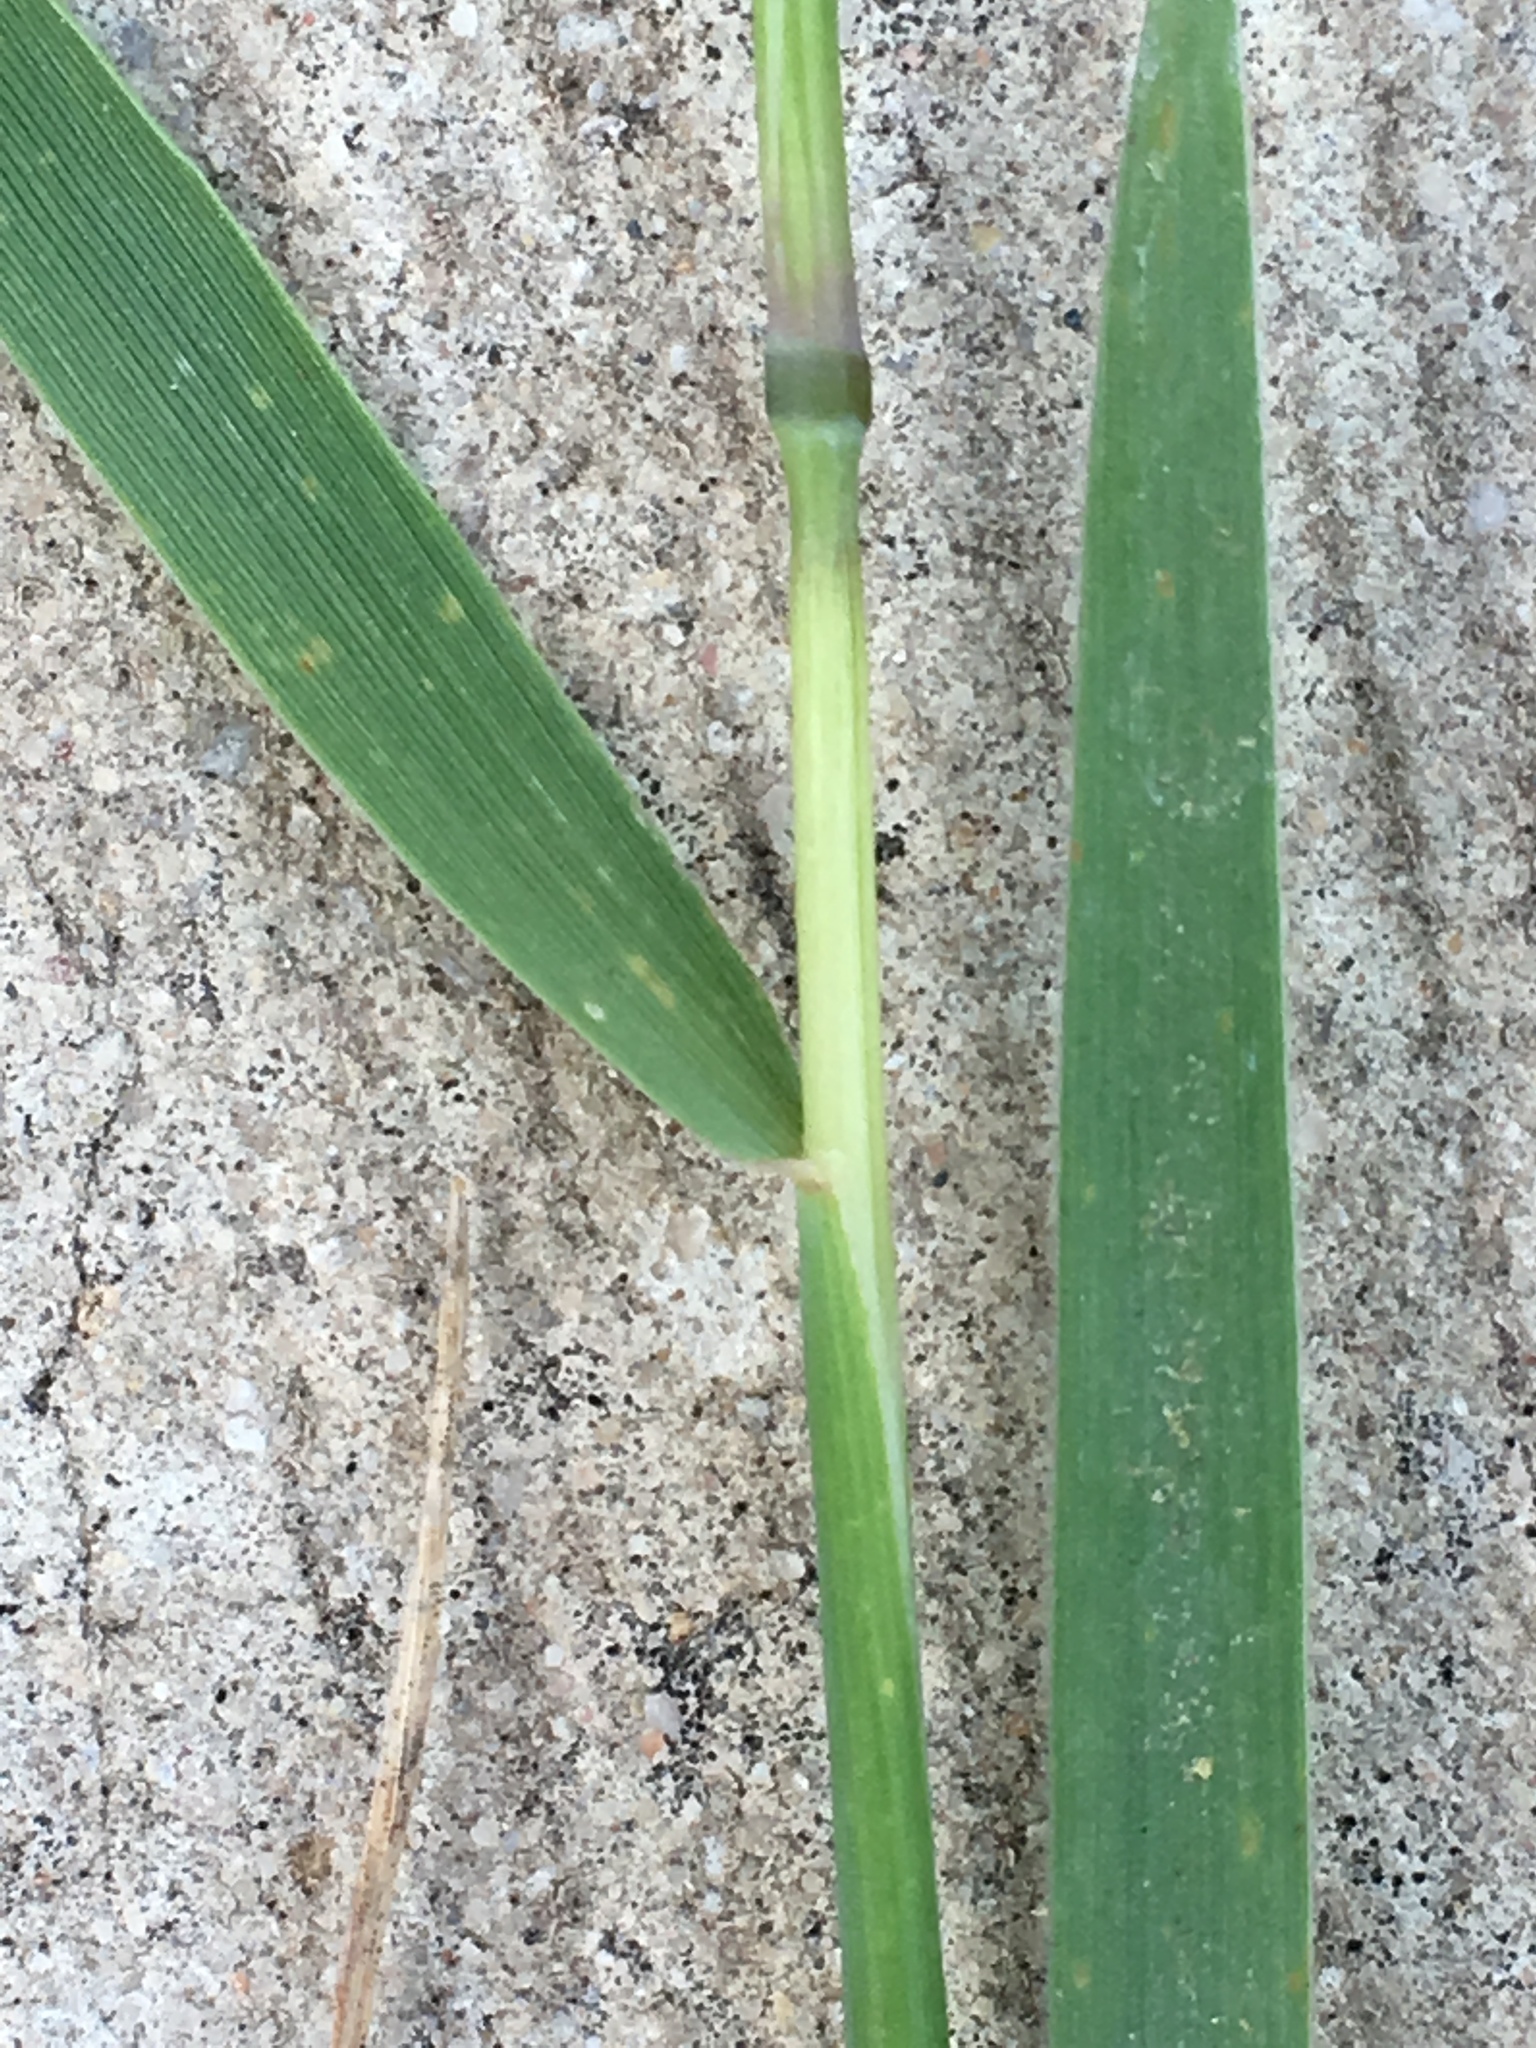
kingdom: Plantae
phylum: Tracheophyta
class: Liliopsida
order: Poales
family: Poaceae
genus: Hordeum
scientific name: Hordeum pusillum
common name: Little barley
